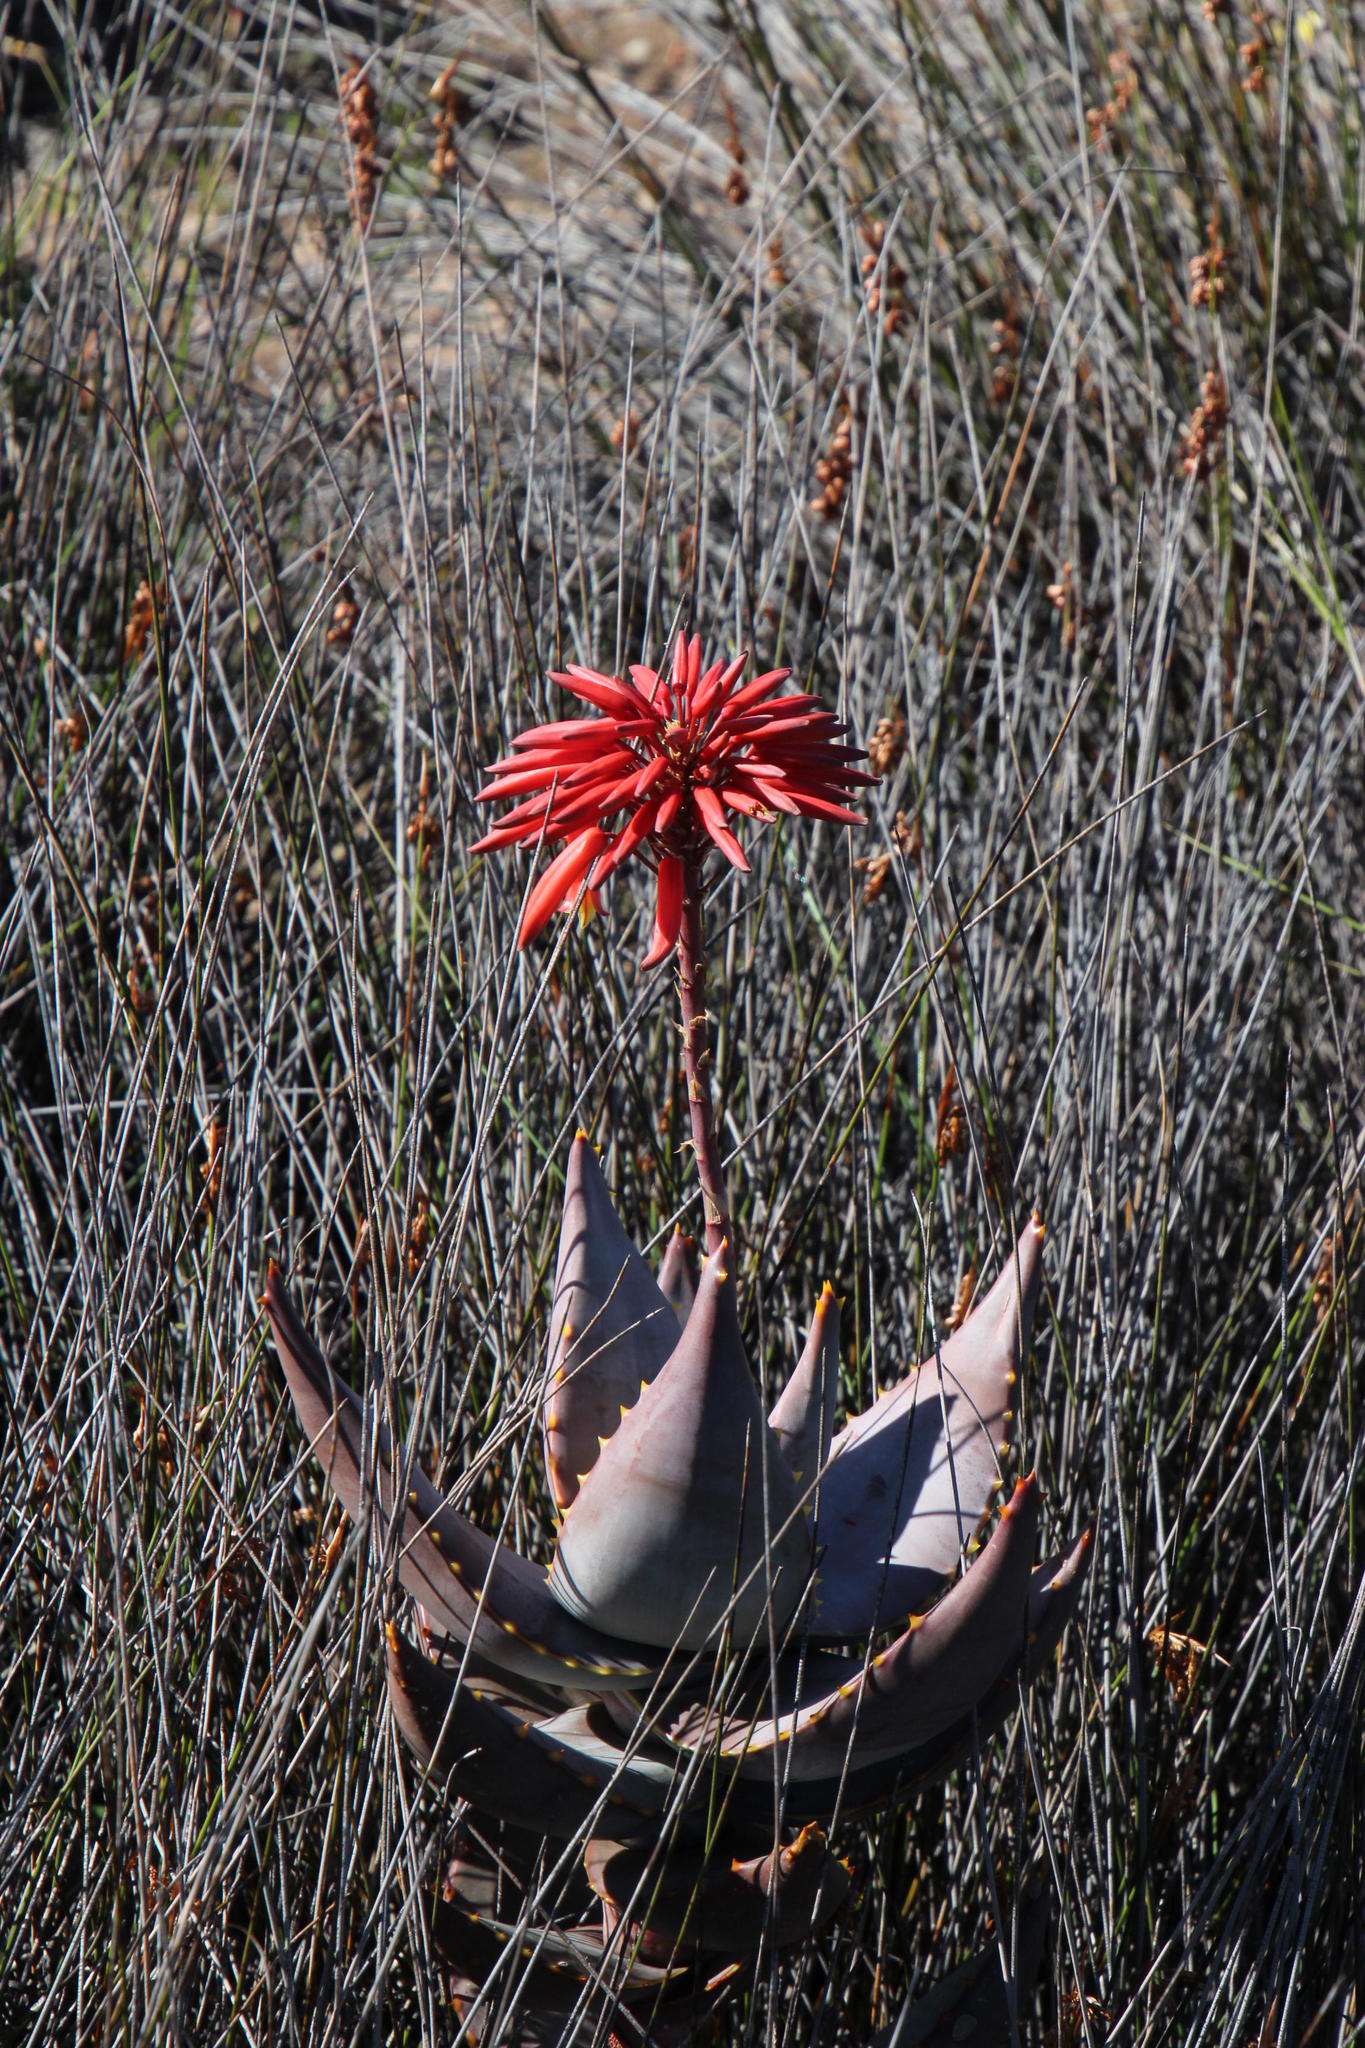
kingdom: Plantae
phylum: Tracheophyta
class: Liliopsida
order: Asparagales
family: Asphodelaceae
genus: Aloe
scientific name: Aloe perfoliata
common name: Mitra aloe
